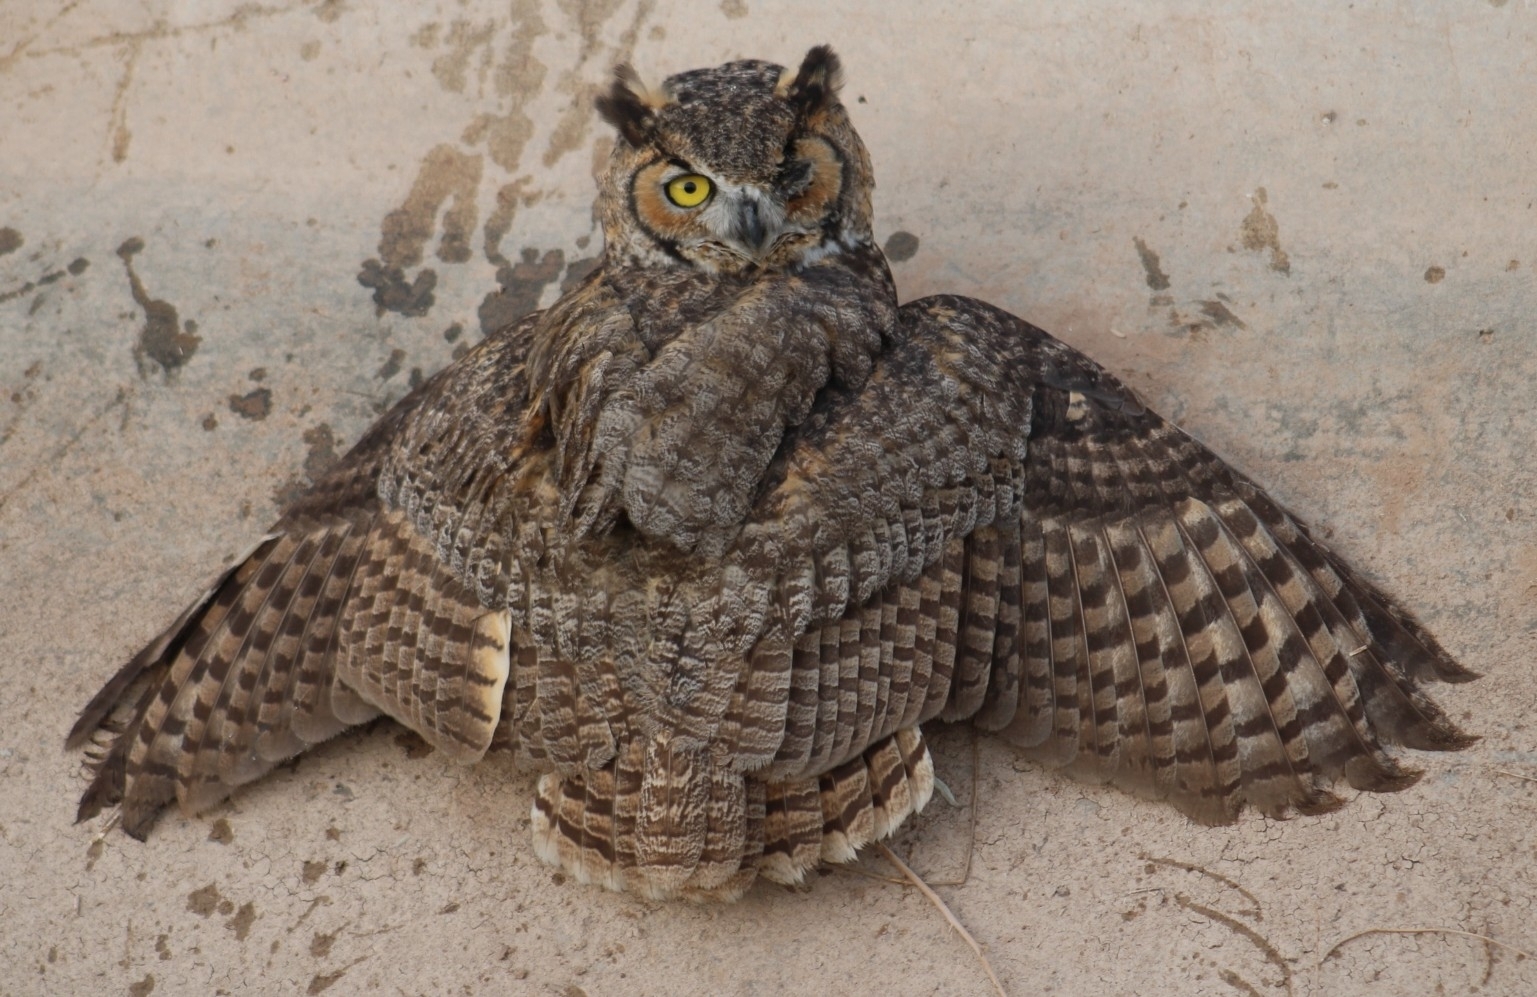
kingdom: Animalia
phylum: Chordata
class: Aves
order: Strigiformes
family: Strigidae
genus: Bubo
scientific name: Bubo virginianus
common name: Great horned owl
